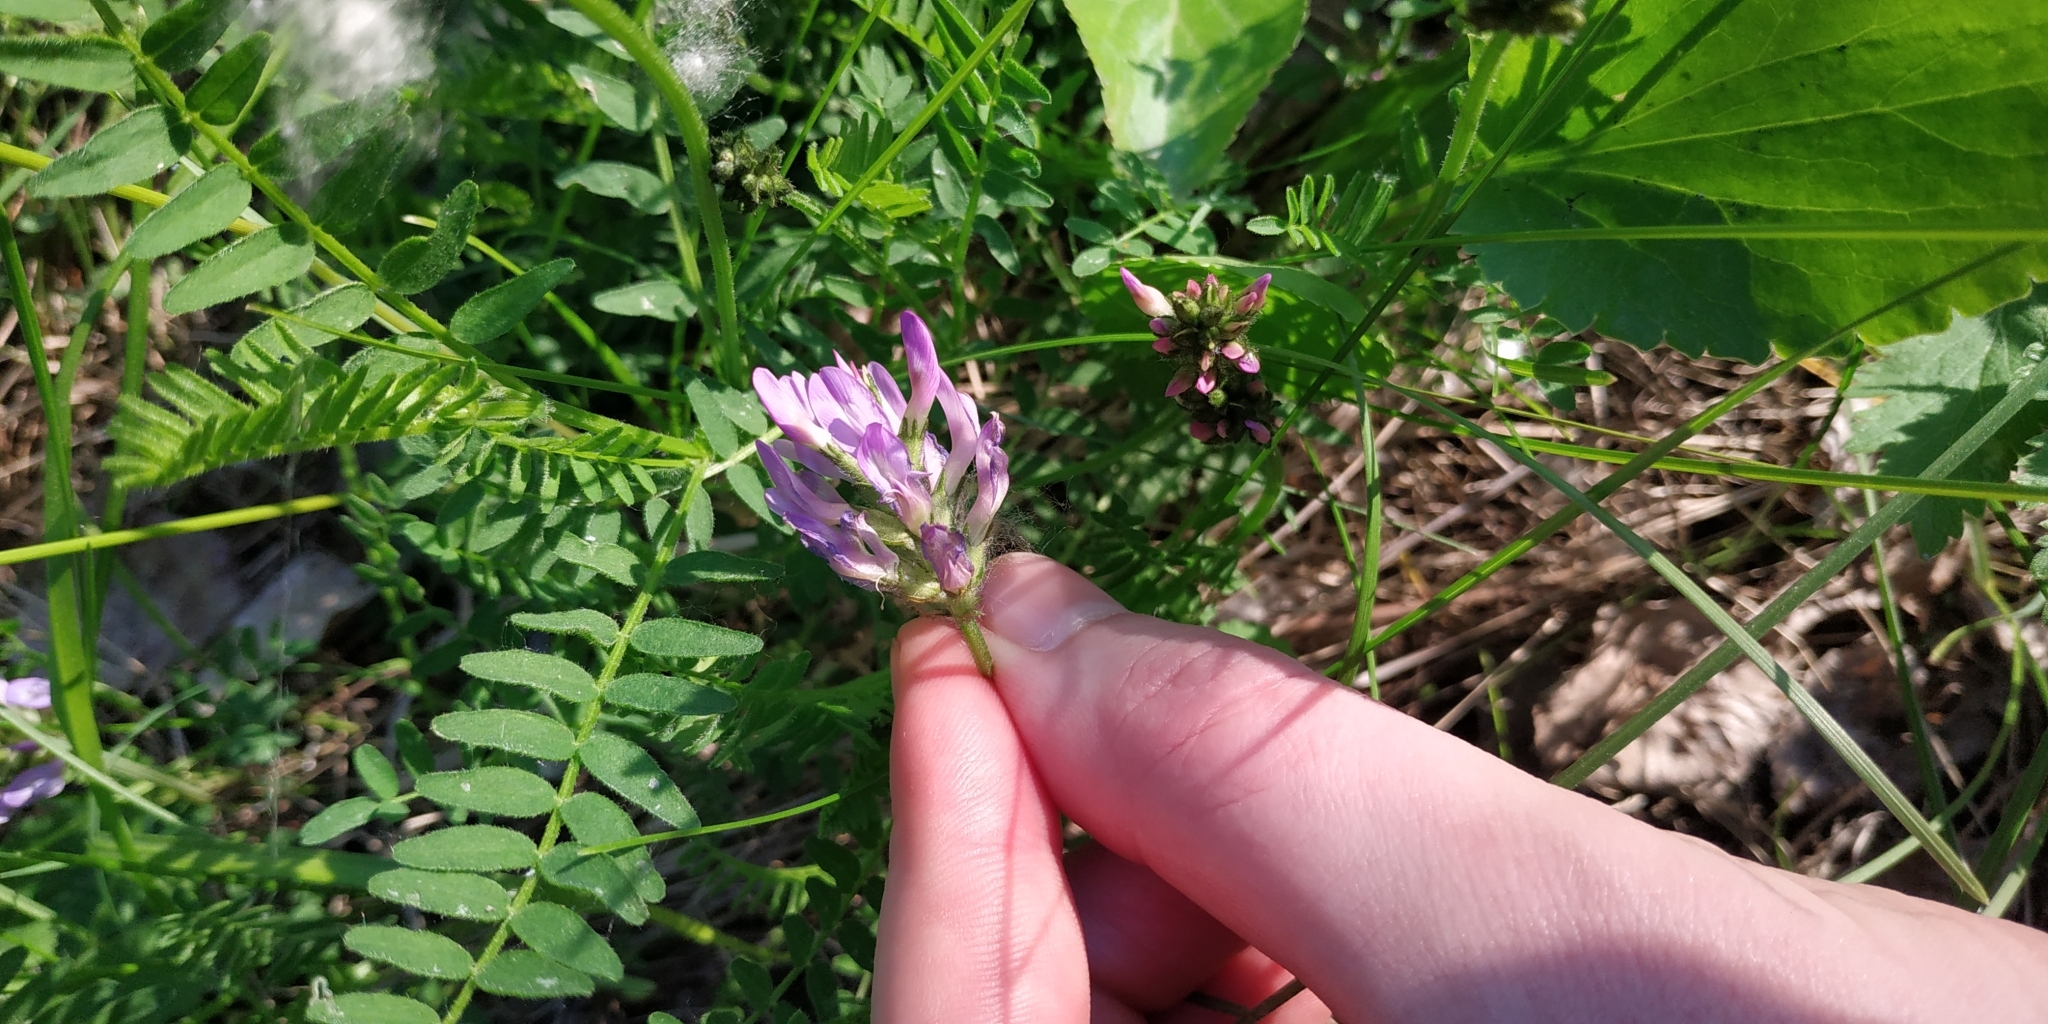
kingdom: Plantae
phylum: Tracheophyta
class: Magnoliopsida
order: Fabales
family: Fabaceae
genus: Astragalus
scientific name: Astragalus danicus
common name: Purple milk-vetch
